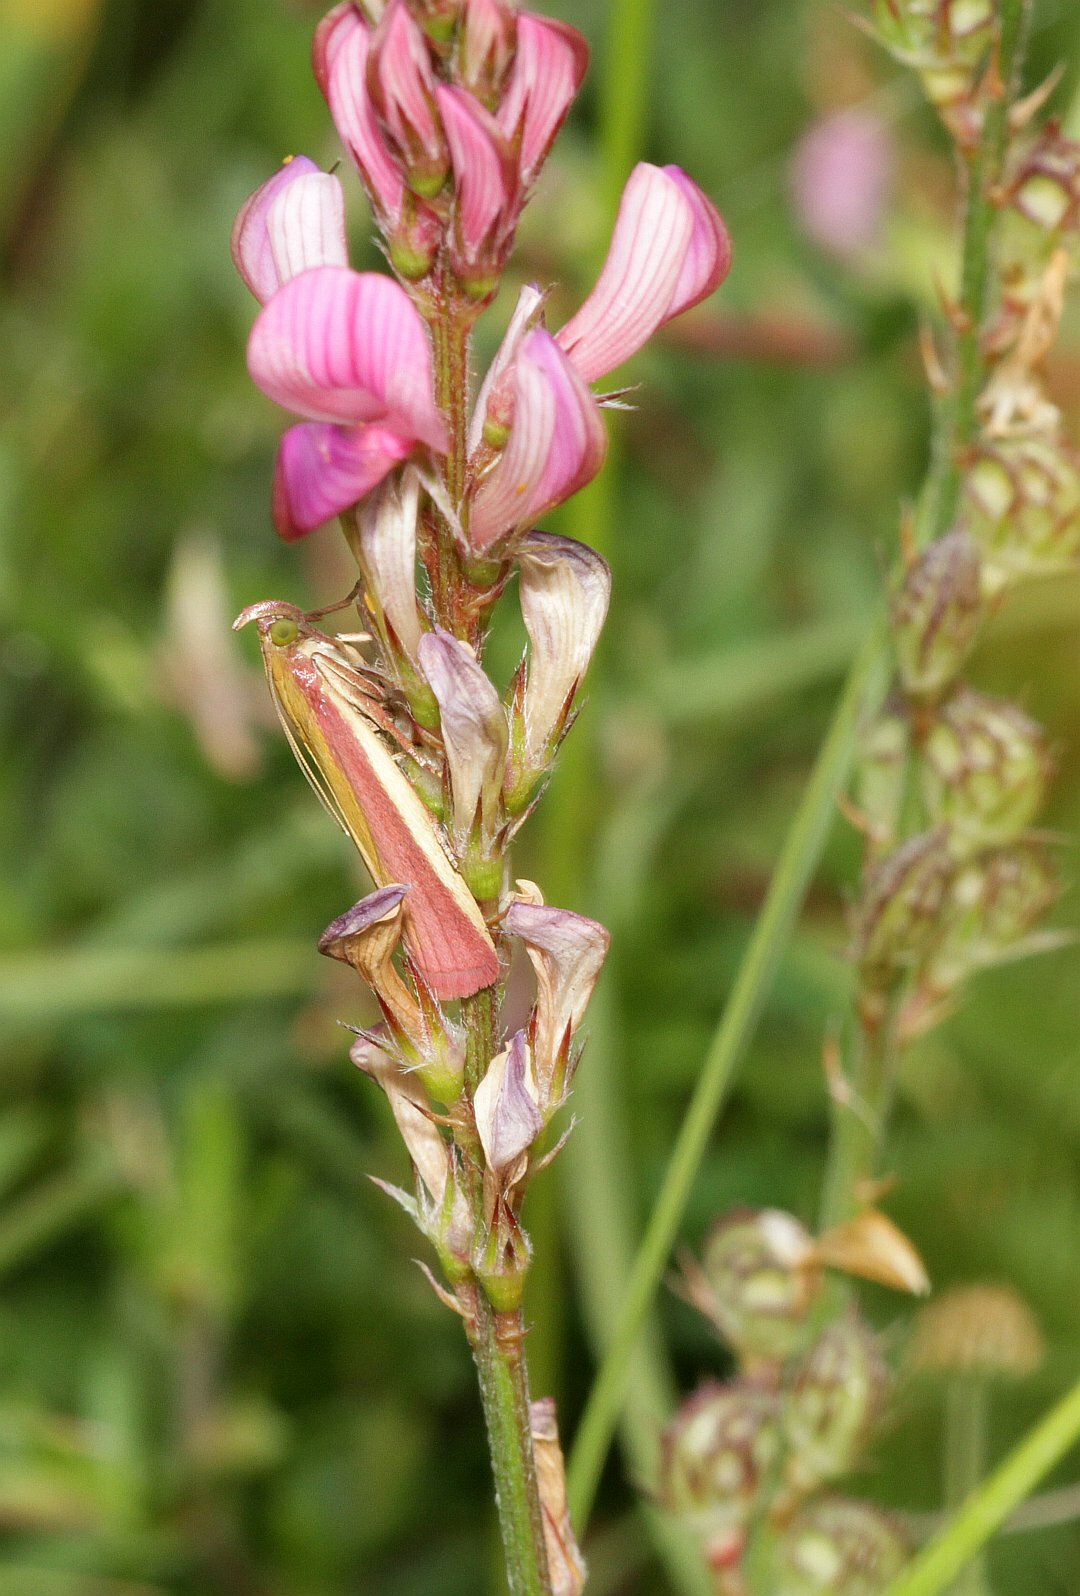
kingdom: Animalia
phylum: Arthropoda
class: Insecta
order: Lepidoptera
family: Pyralidae
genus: Oncocera
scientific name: Oncocera semirubella
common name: Rosy-striped knot-horn
